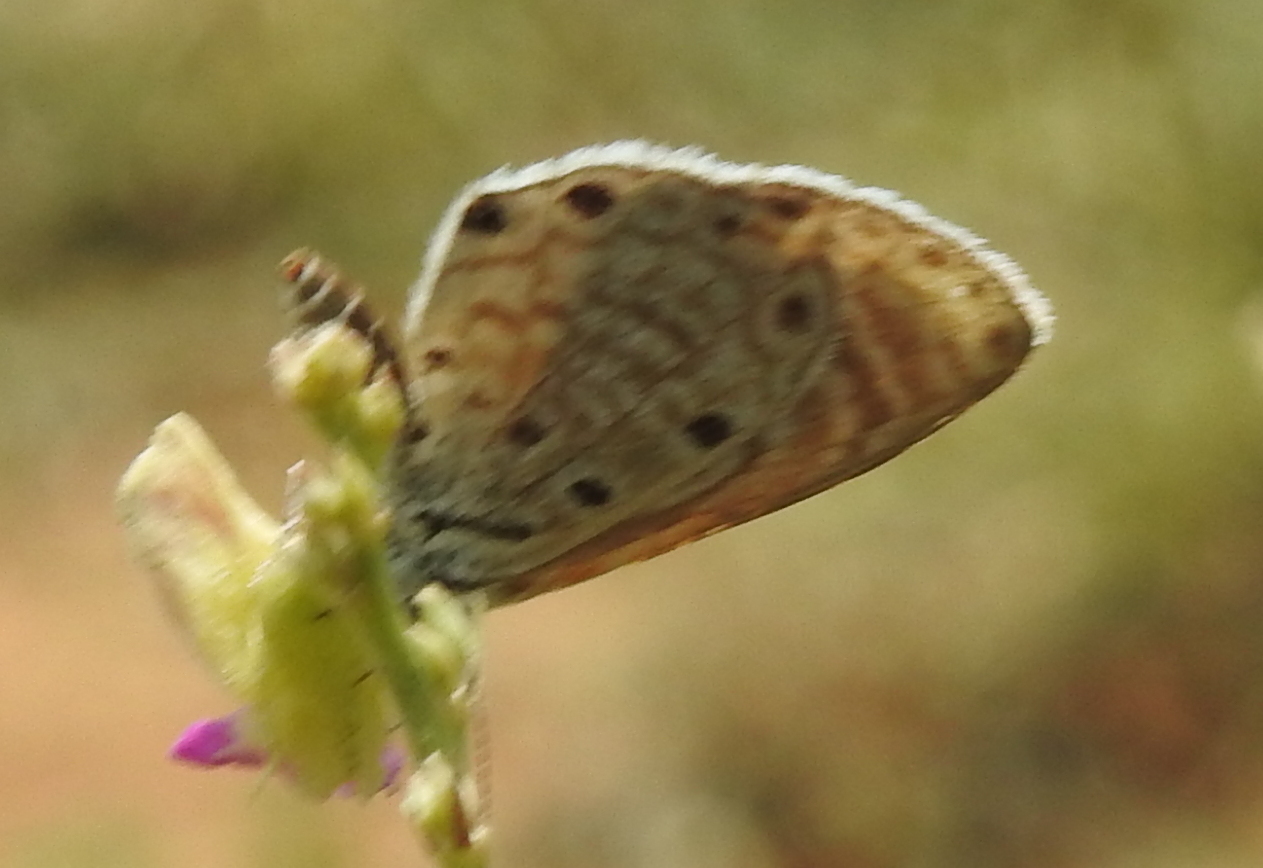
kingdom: Animalia
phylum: Arthropoda
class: Insecta
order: Lepidoptera
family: Lycaenidae
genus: Azanus
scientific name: Azanus jesous
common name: African babul blue
